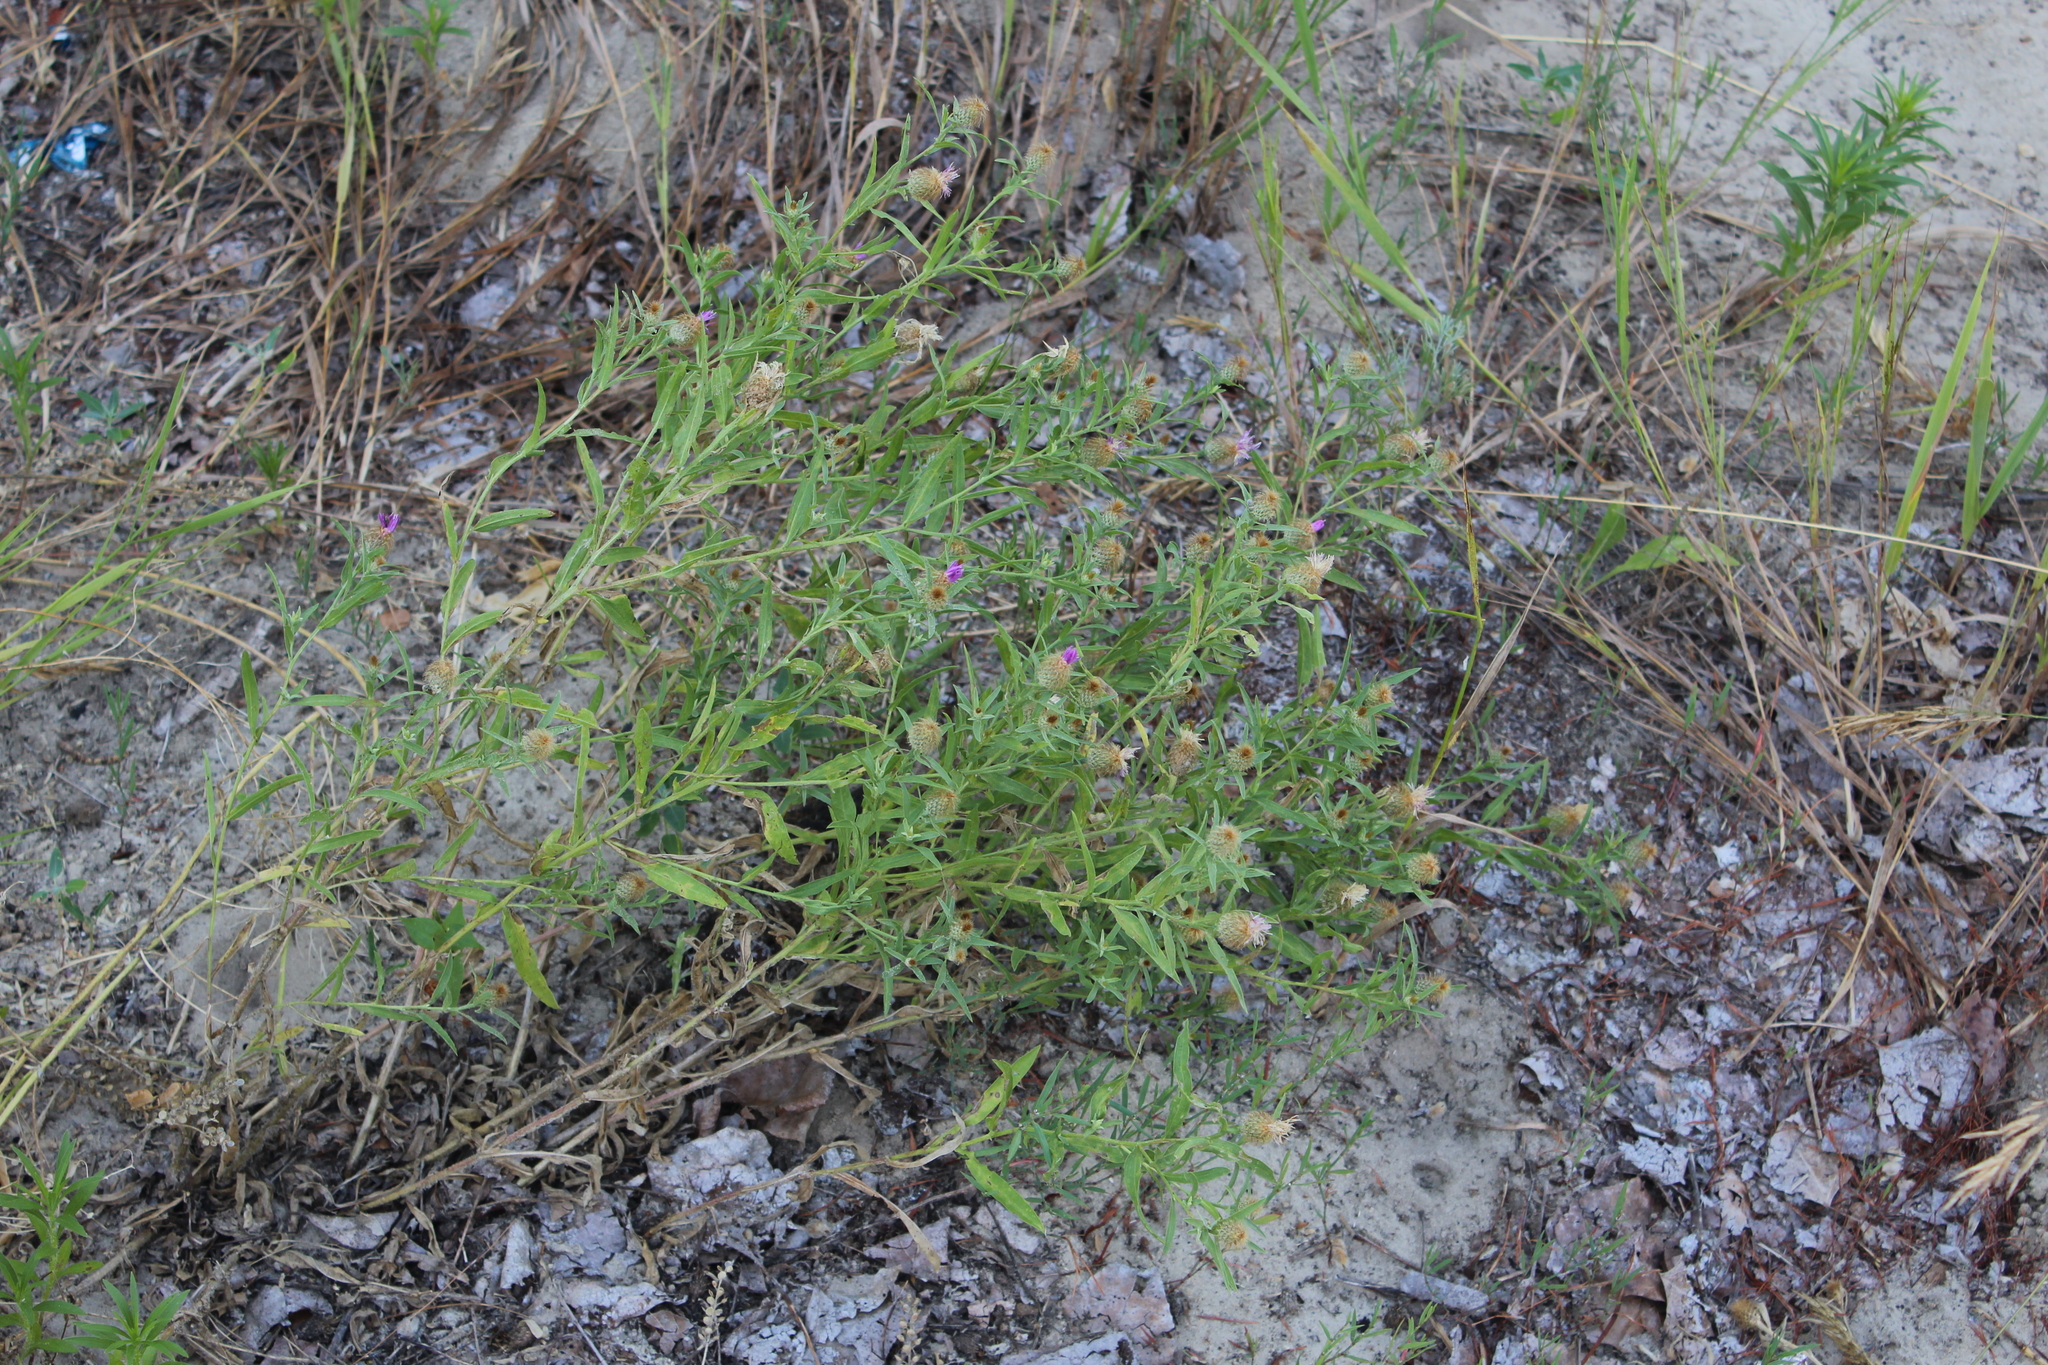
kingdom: Plantae
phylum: Tracheophyta
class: Magnoliopsida
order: Asterales
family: Asteraceae
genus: Centaurea
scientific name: Centaurea trichocephala
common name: Feather-head knapweed
